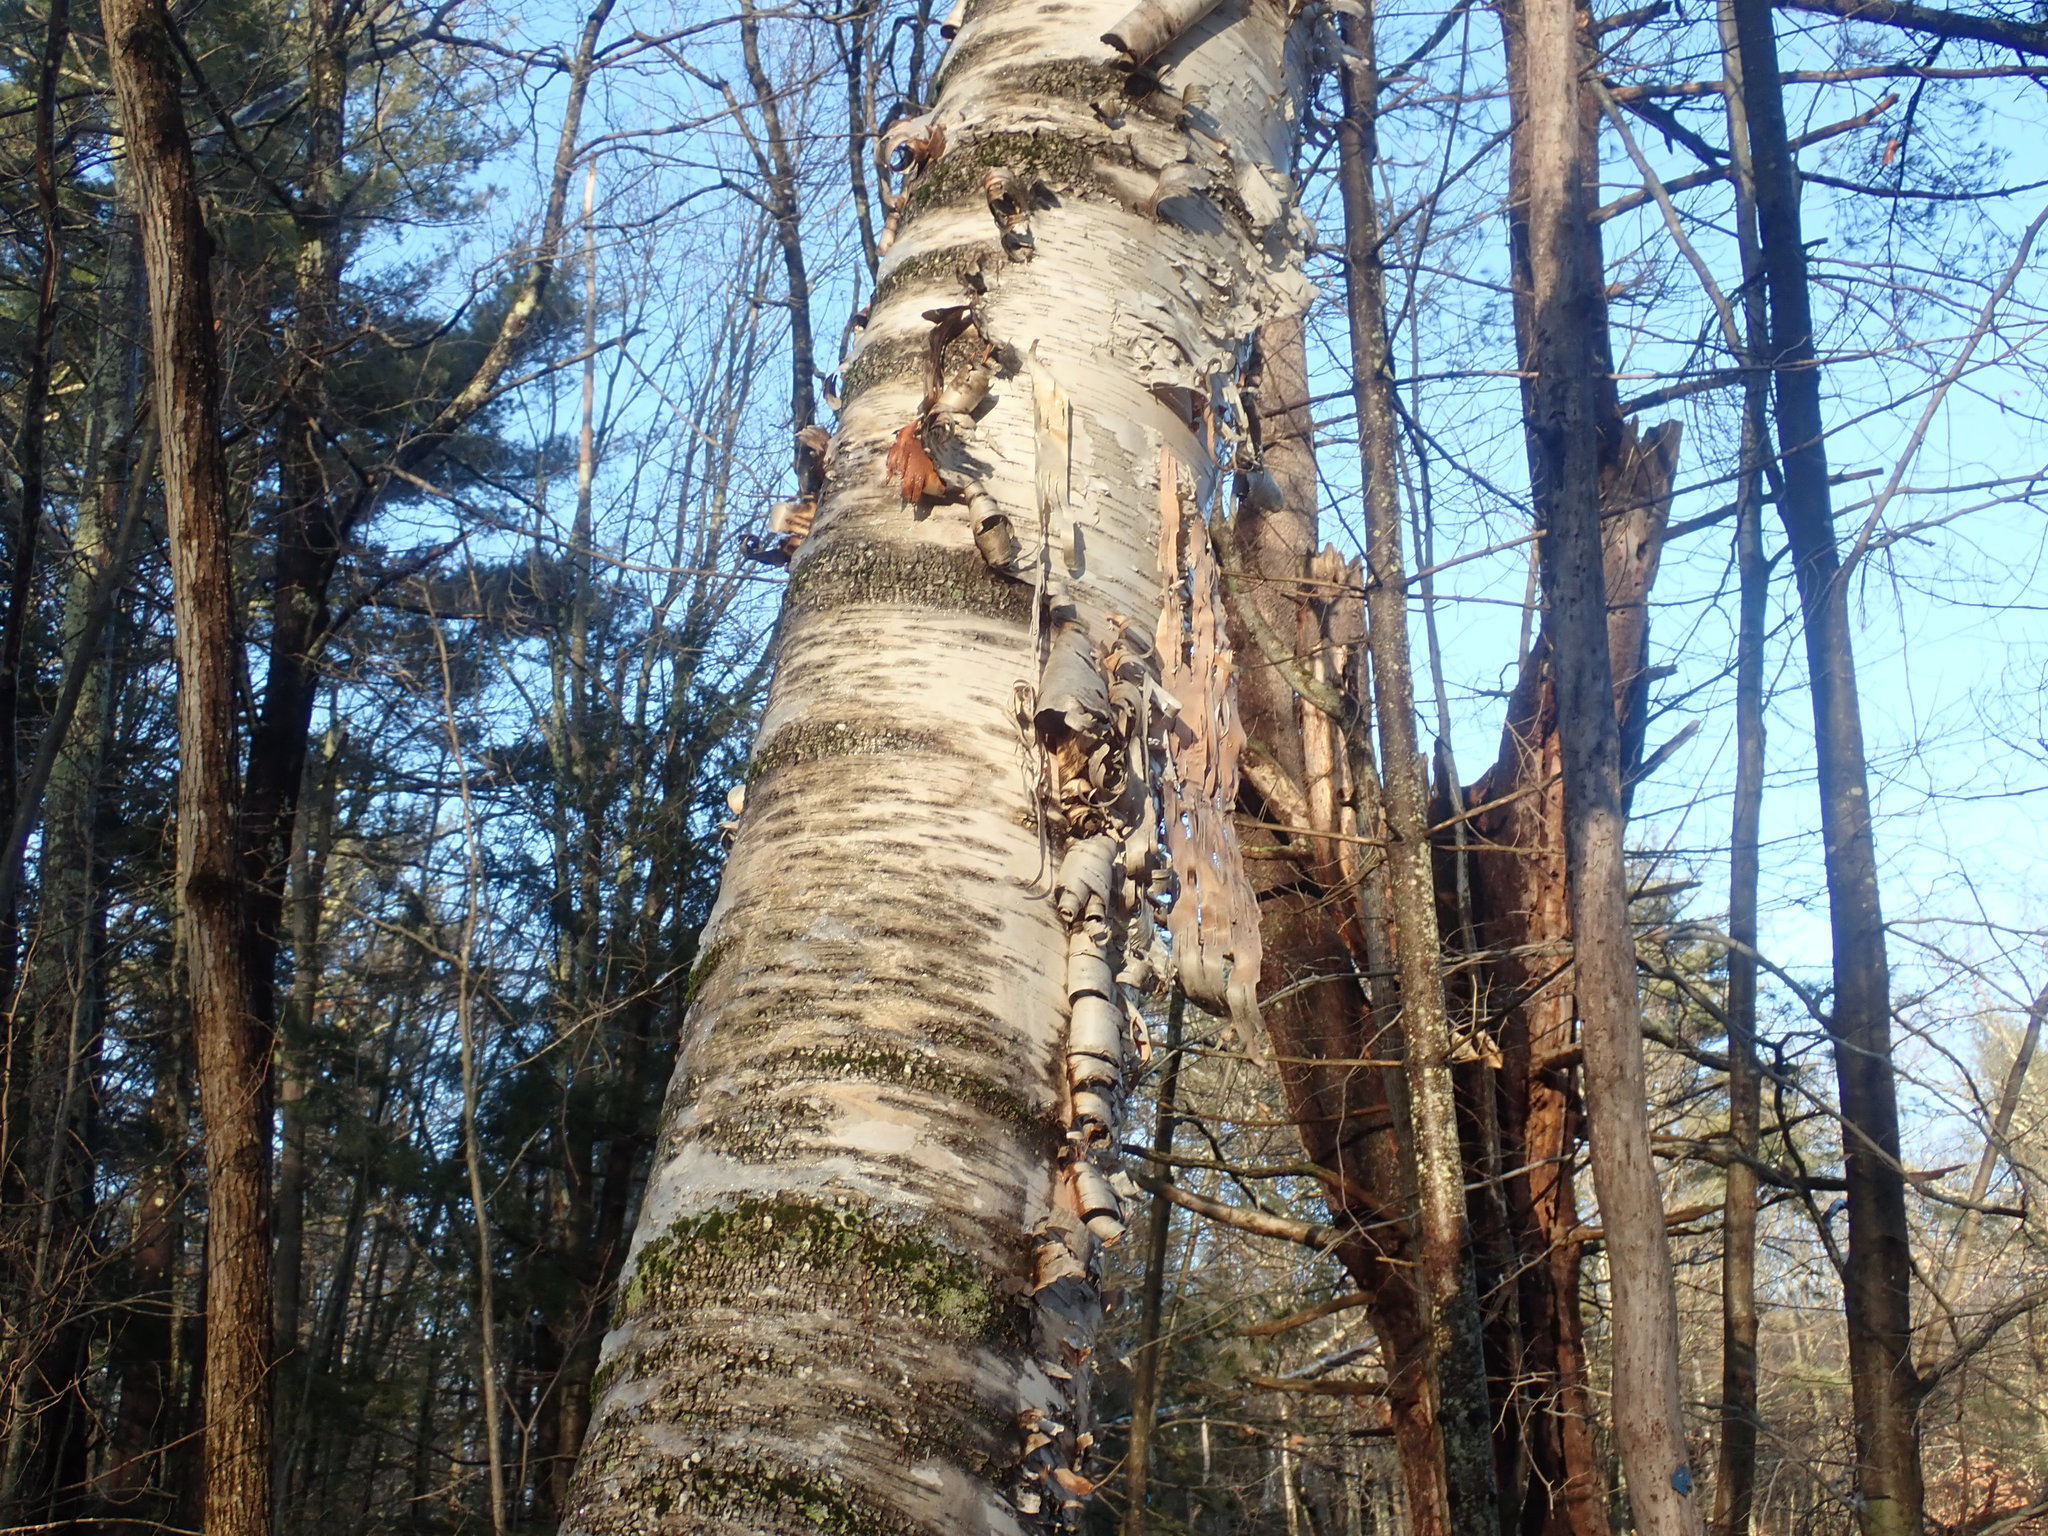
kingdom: Plantae
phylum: Tracheophyta
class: Magnoliopsida
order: Fagales
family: Betulaceae
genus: Betula
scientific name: Betula papyrifera
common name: Paper birch
